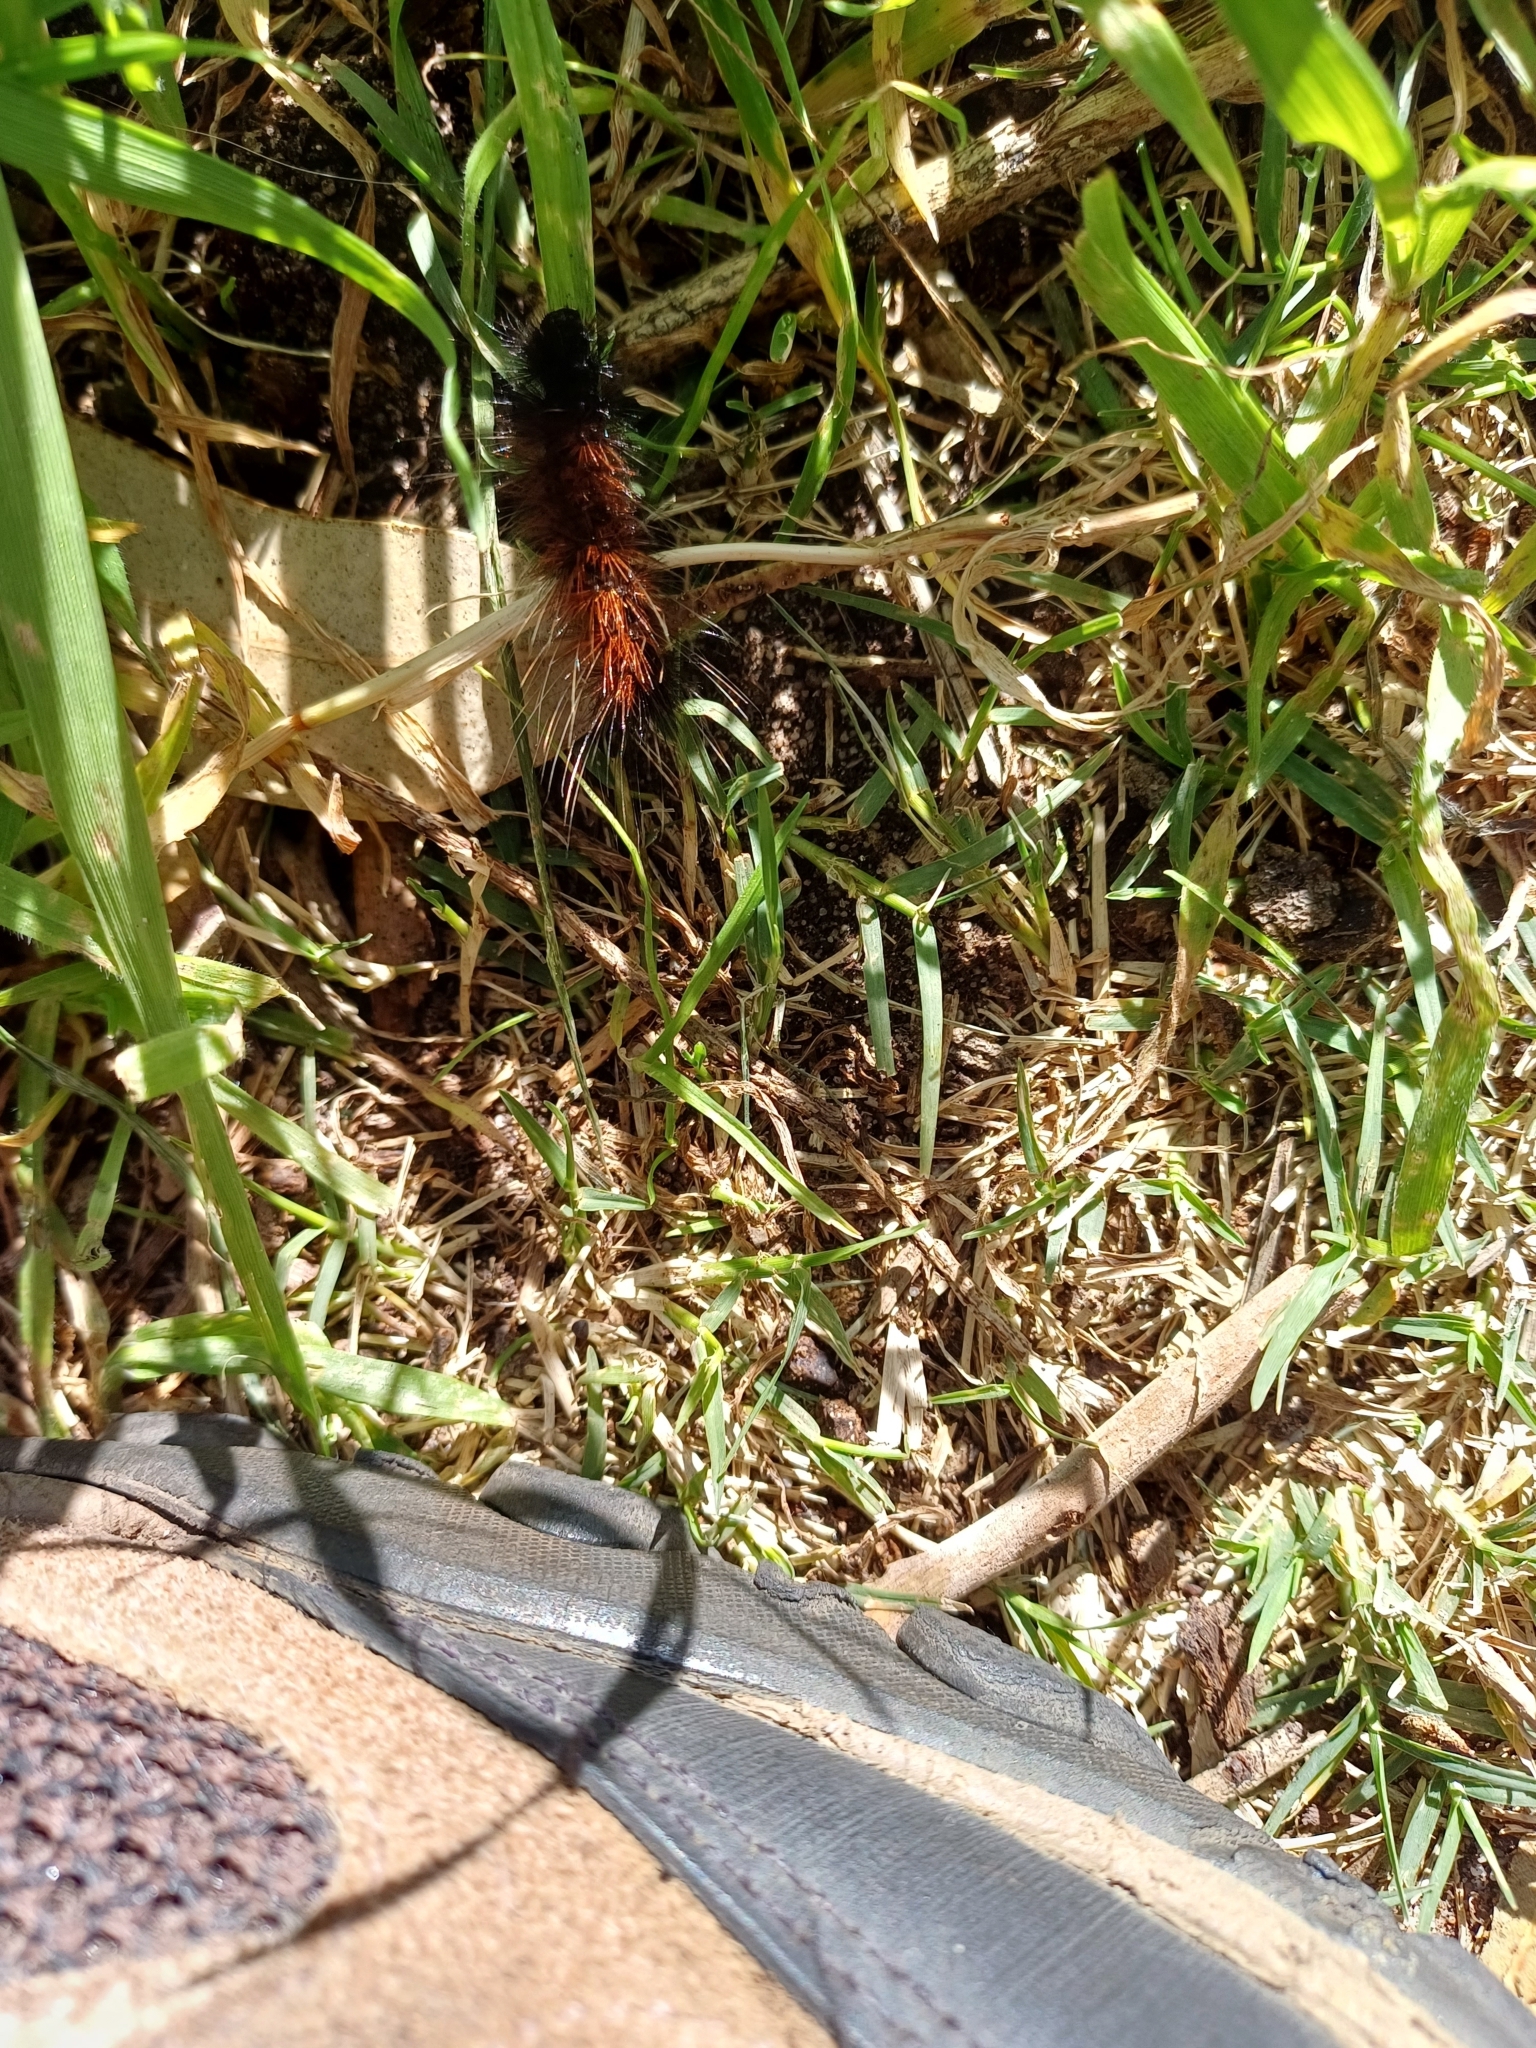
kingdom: Animalia
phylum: Arthropoda
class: Insecta
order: Lepidoptera
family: Erebidae
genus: Rhodogastria
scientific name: Rhodogastria amasis
